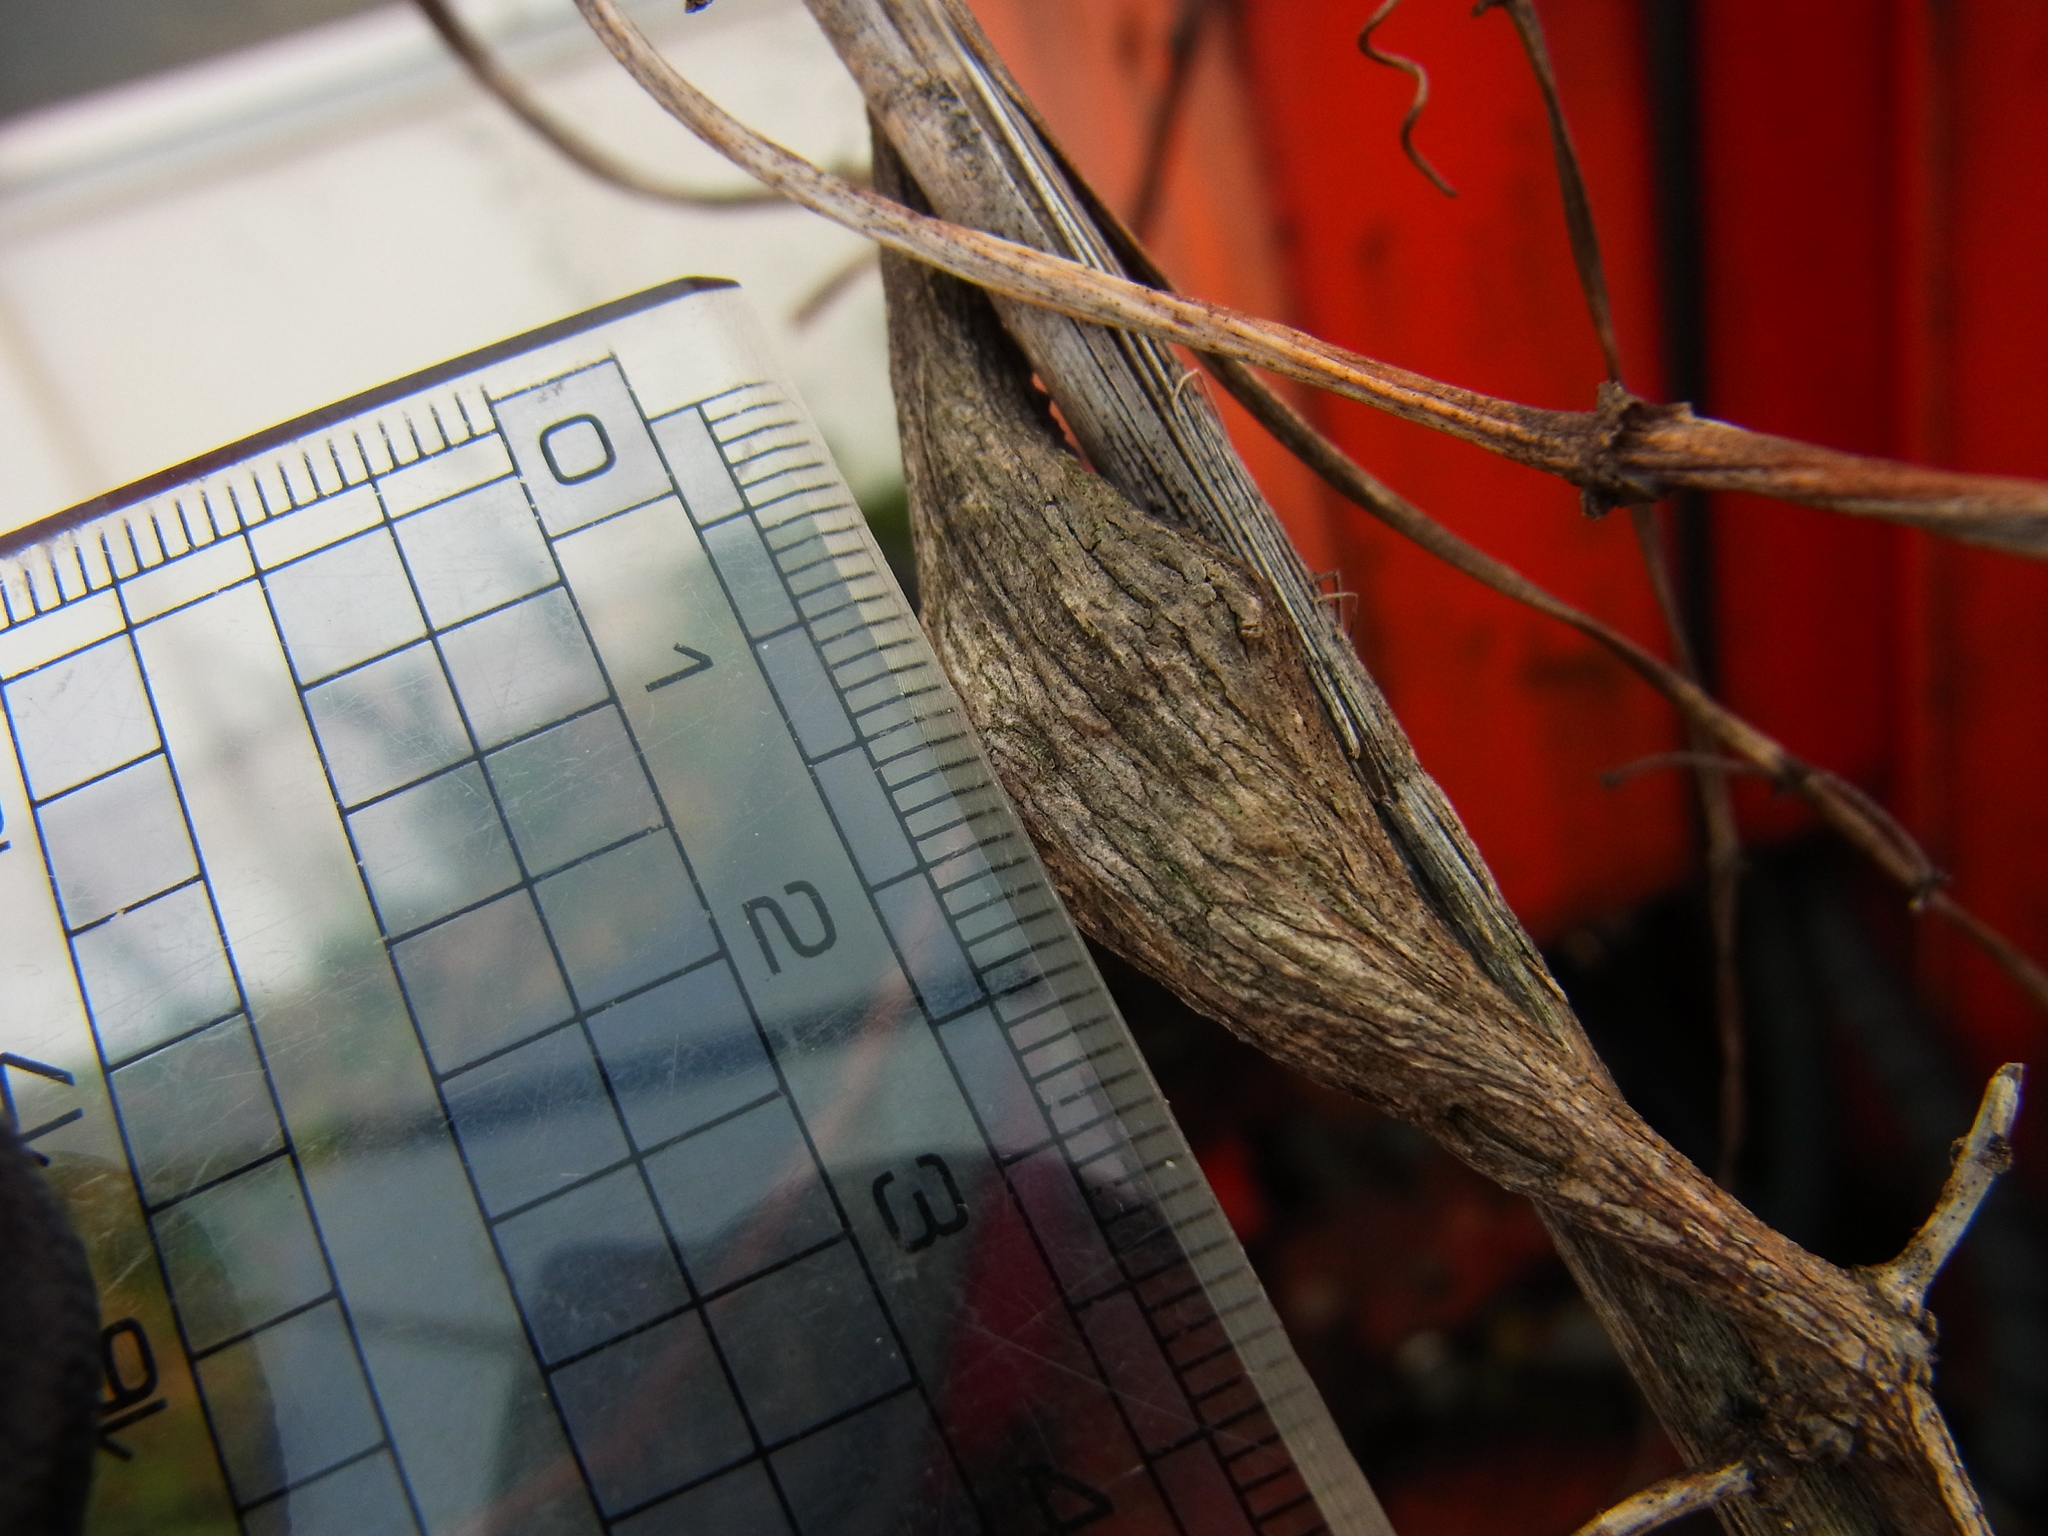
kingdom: Animalia
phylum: Arthropoda
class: Insecta
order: Lepidoptera
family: Sesiidae
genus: Nokona
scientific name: Nokona pernix
